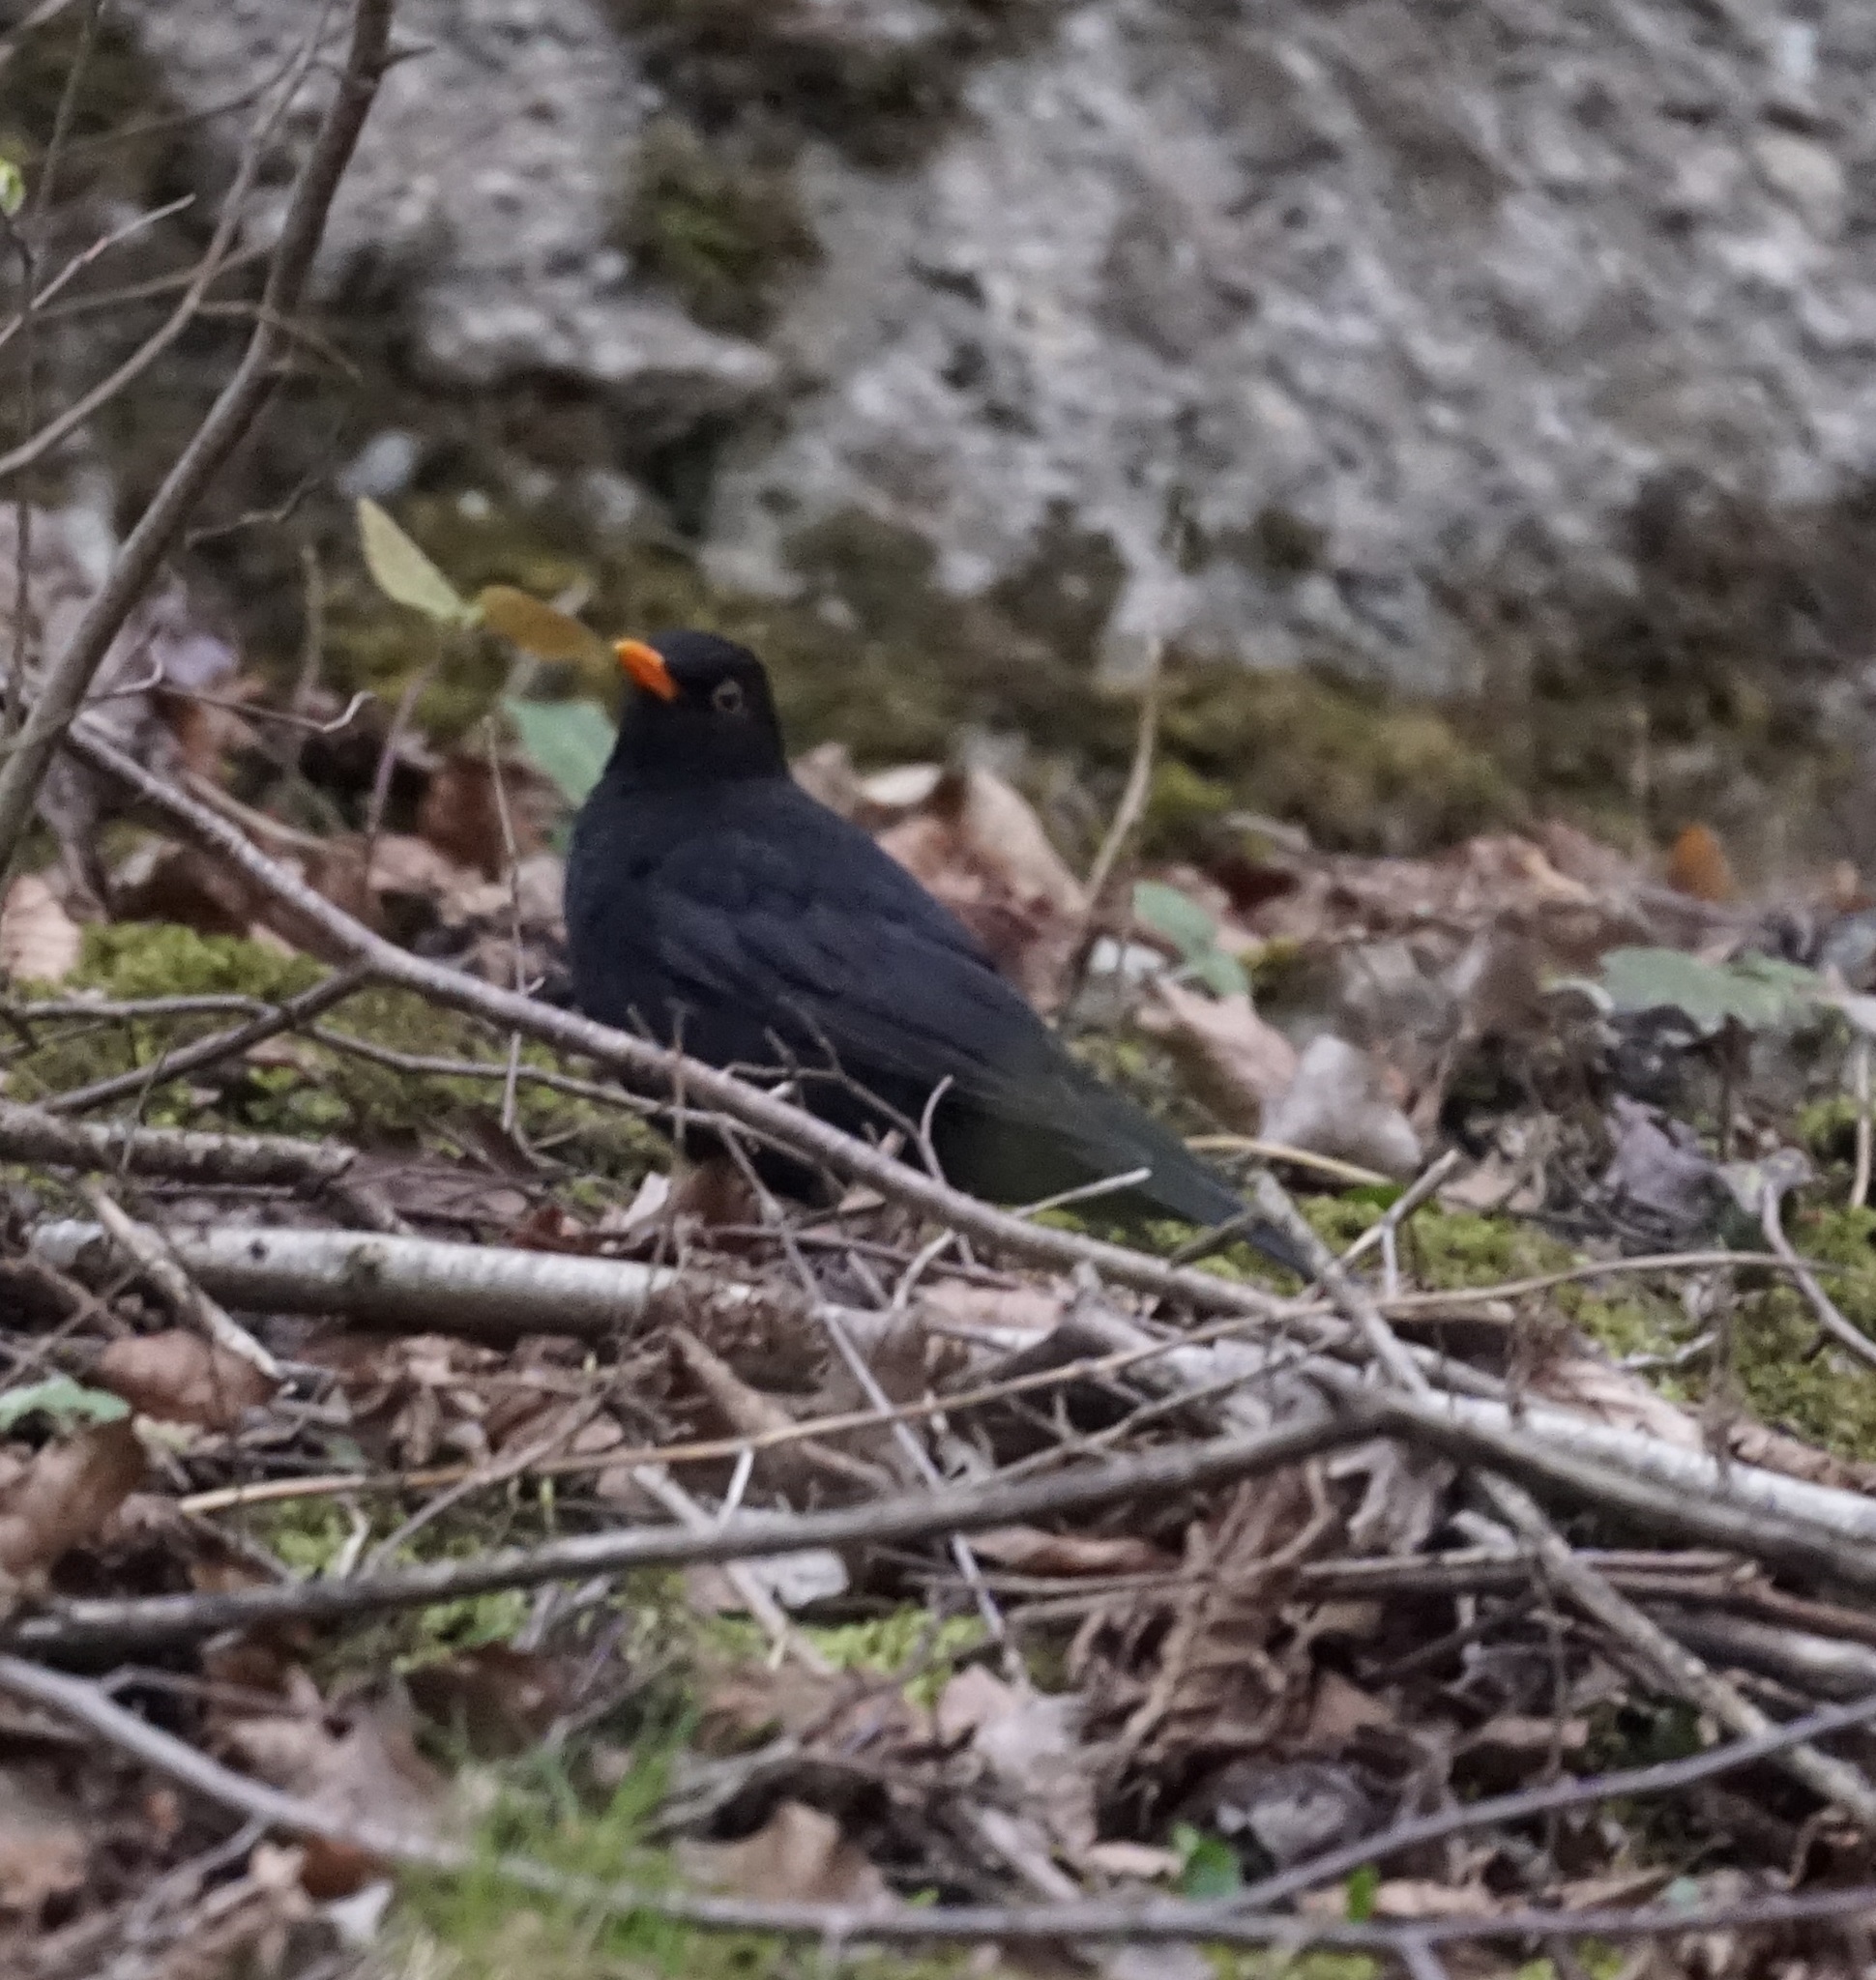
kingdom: Animalia
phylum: Chordata
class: Aves
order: Passeriformes
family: Turdidae
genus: Turdus
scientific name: Turdus merula
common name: Common blackbird
